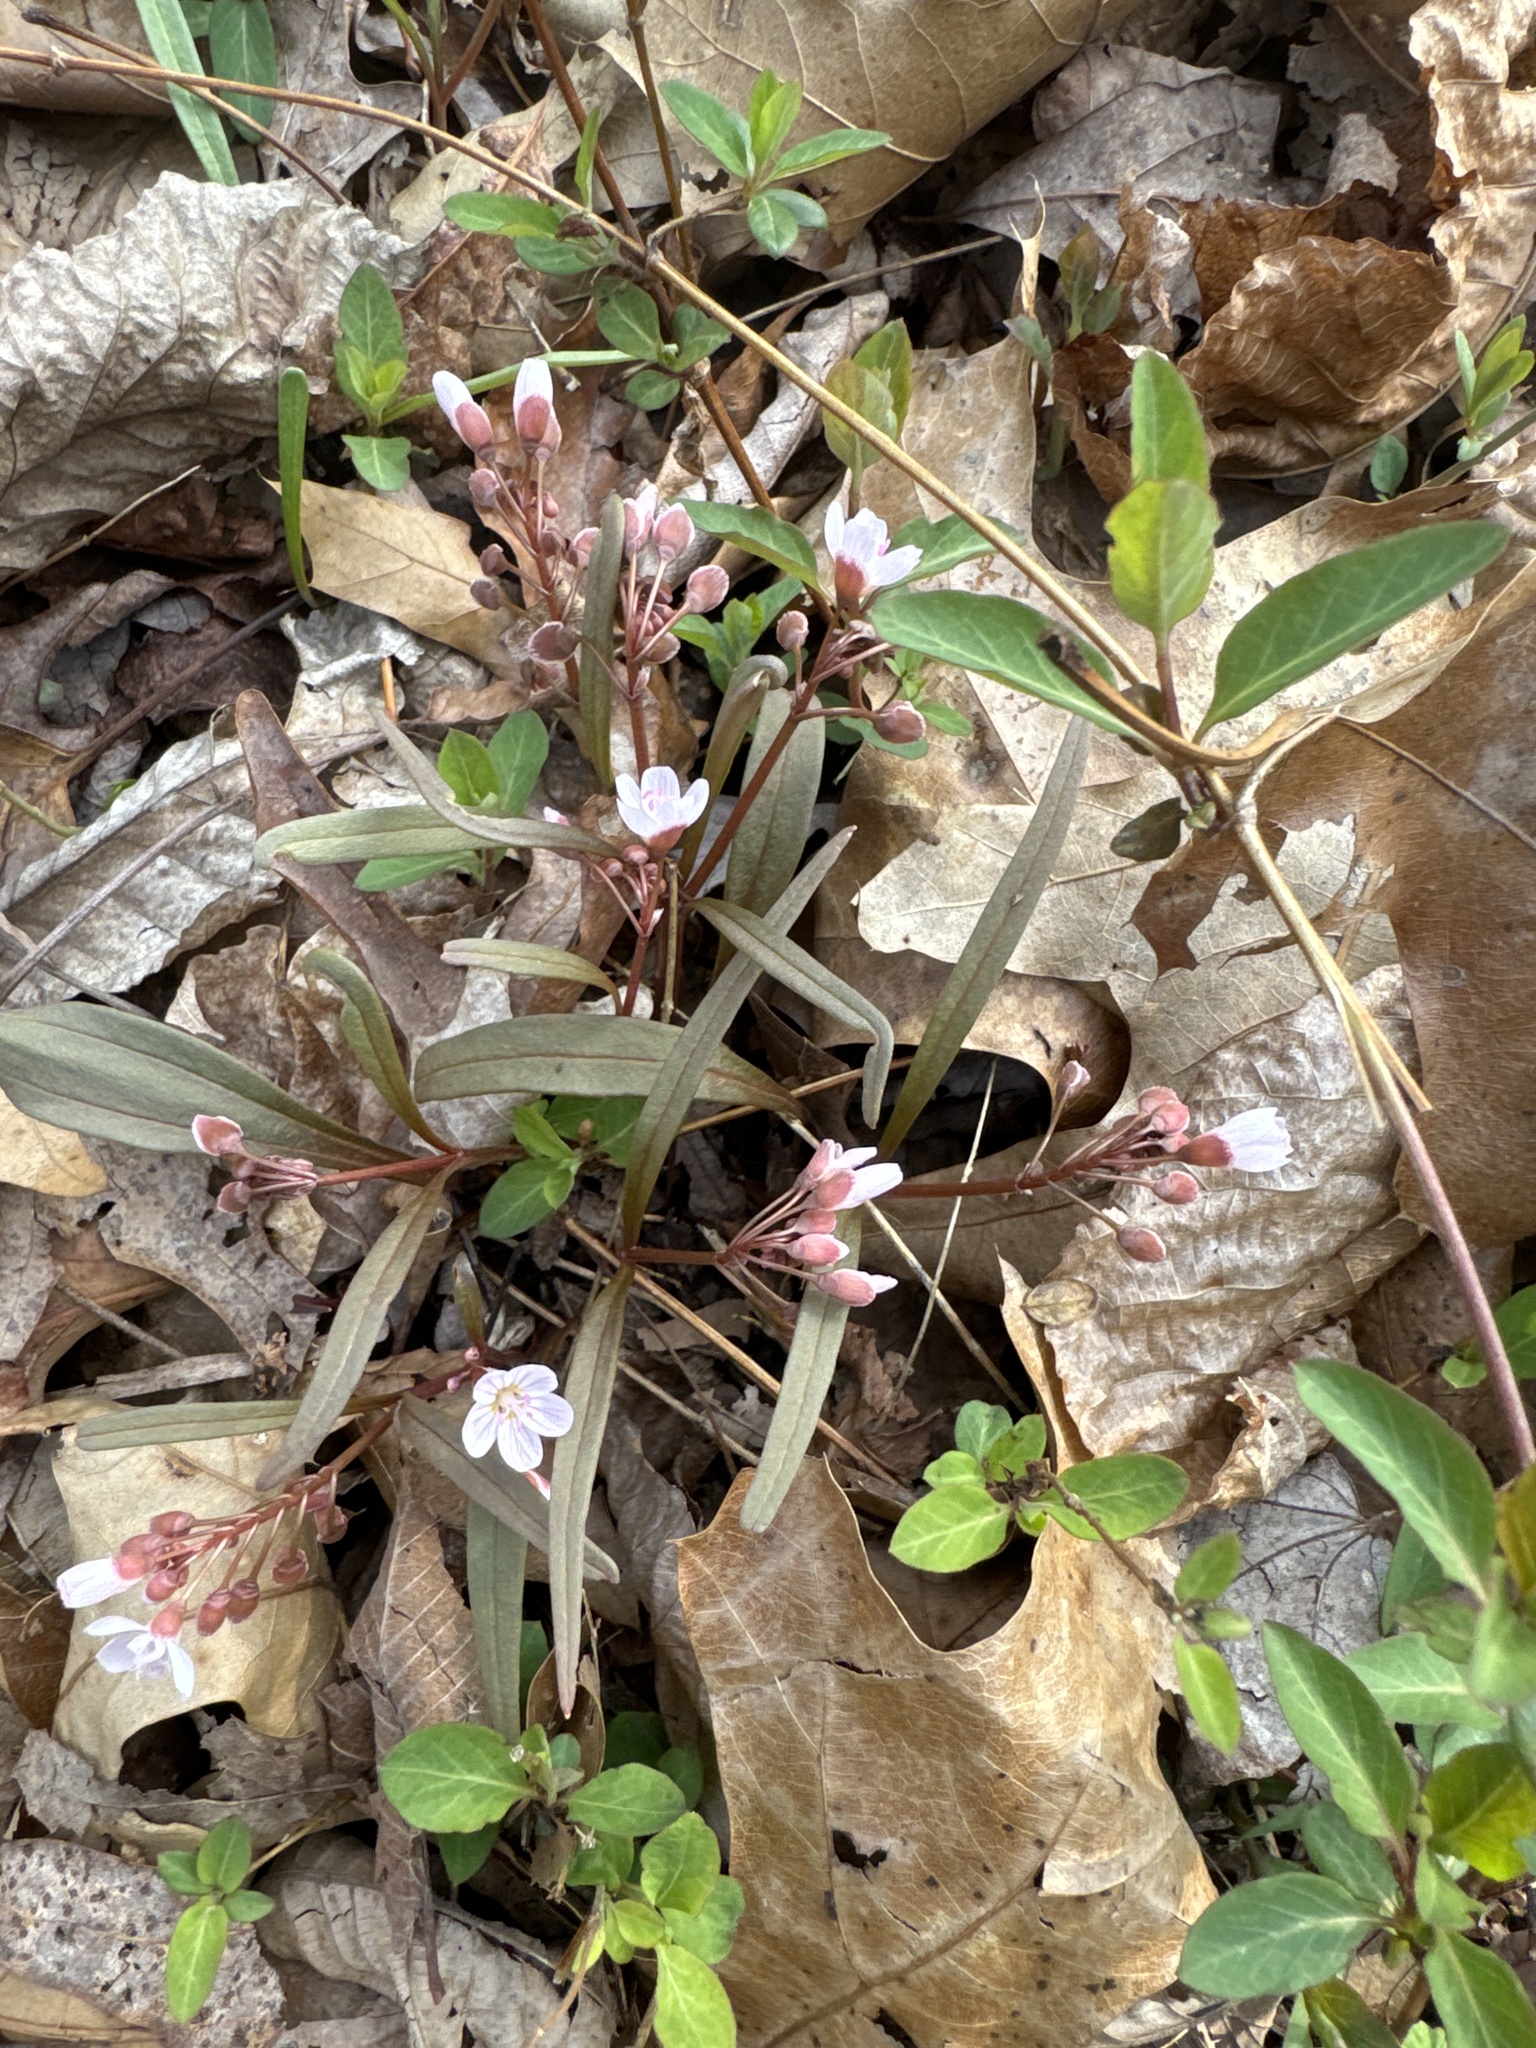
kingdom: Plantae
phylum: Tracheophyta
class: Magnoliopsida
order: Caryophyllales
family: Montiaceae
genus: Claytonia
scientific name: Claytonia virginica
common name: Virginia springbeauty
